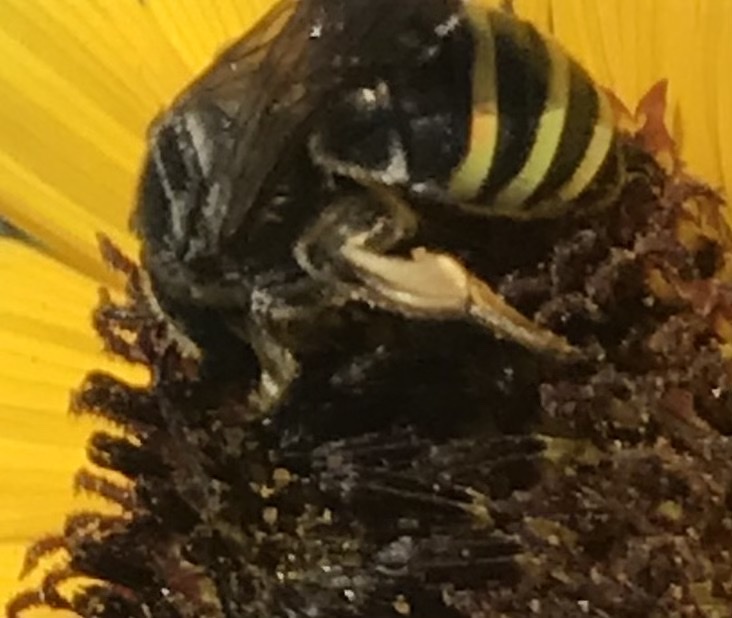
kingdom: Animalia
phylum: Arthropoda
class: Insecta
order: Hymenoptera
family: Halictidae
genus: Nomia
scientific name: Nomia nortoni
